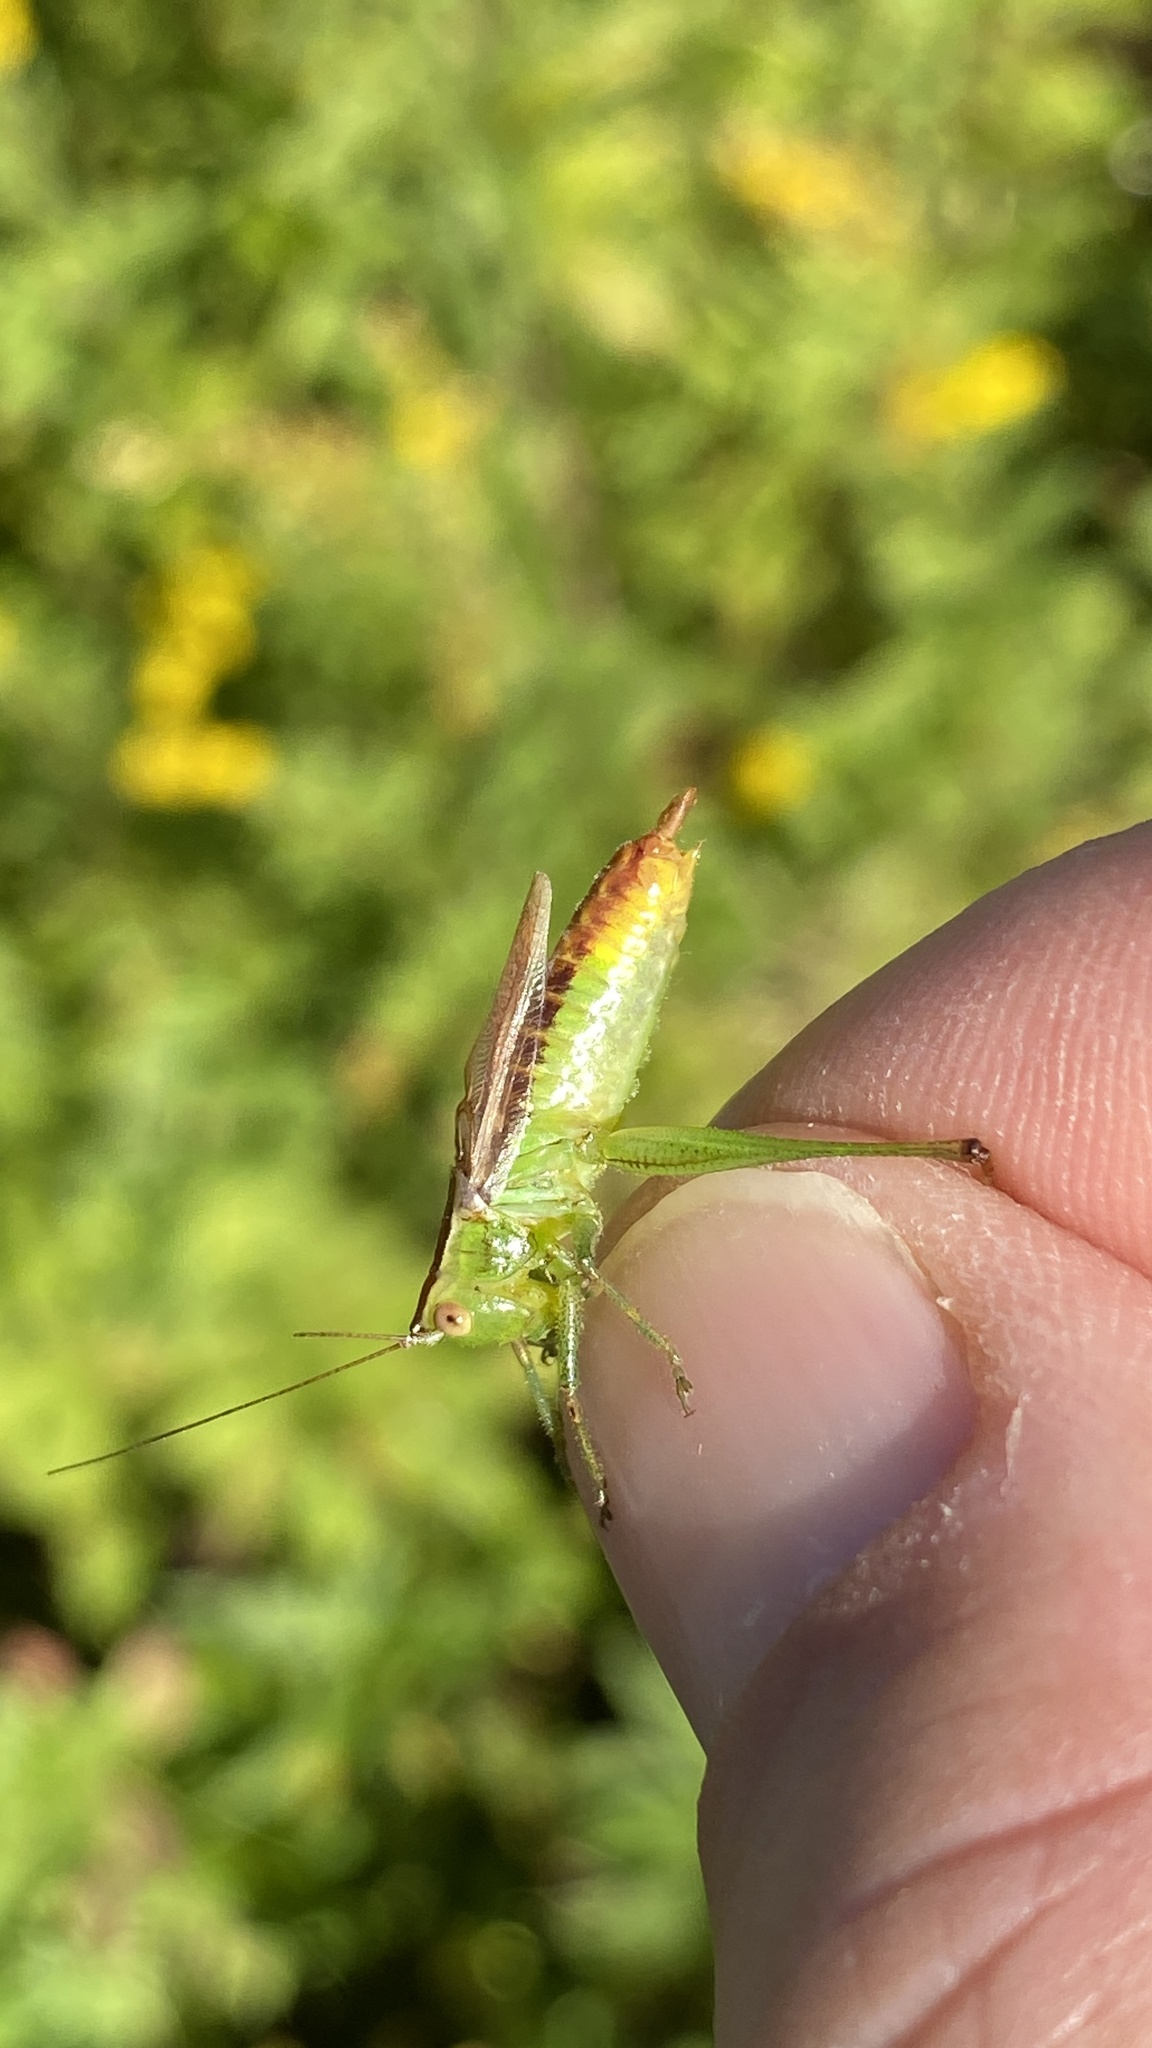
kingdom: Animalia
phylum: Arthropoda
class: Insecta
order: Orthoptera
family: Tettigoniidae
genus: Conocephalus
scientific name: Conocephalus brevipennis
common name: Short-winged meadow katydid
